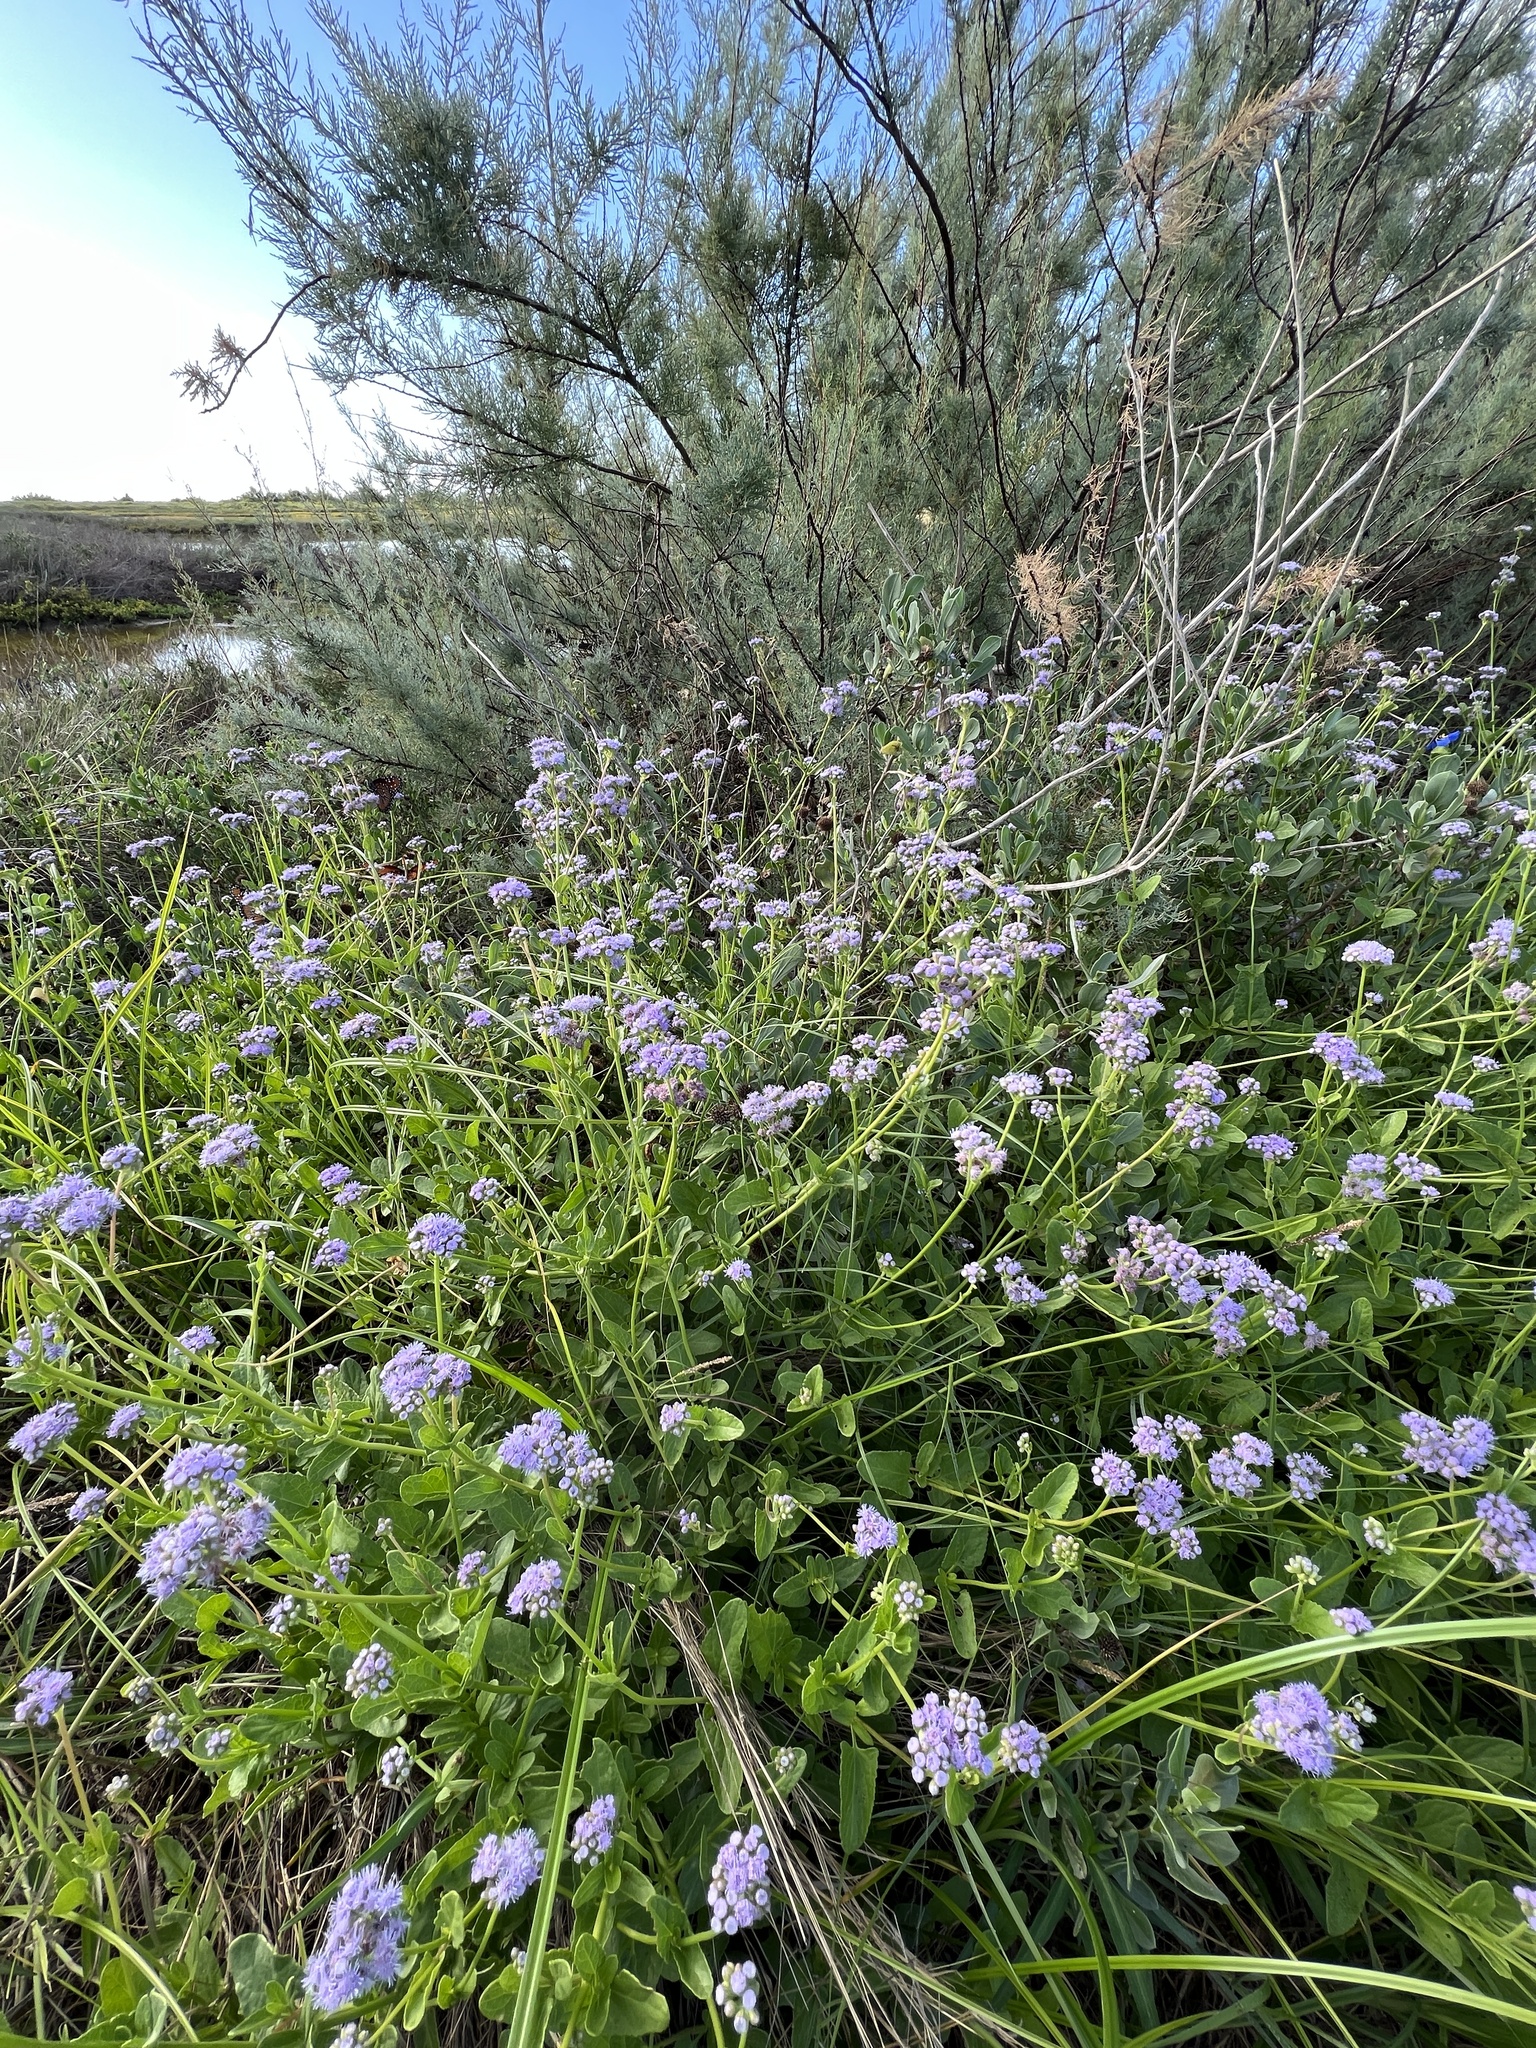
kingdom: Plantae
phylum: Tracheophyta
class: Magnoliopsida
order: Asterales
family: Asteraceae
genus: Conoclinium
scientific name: Conoclinium betonicifolium
